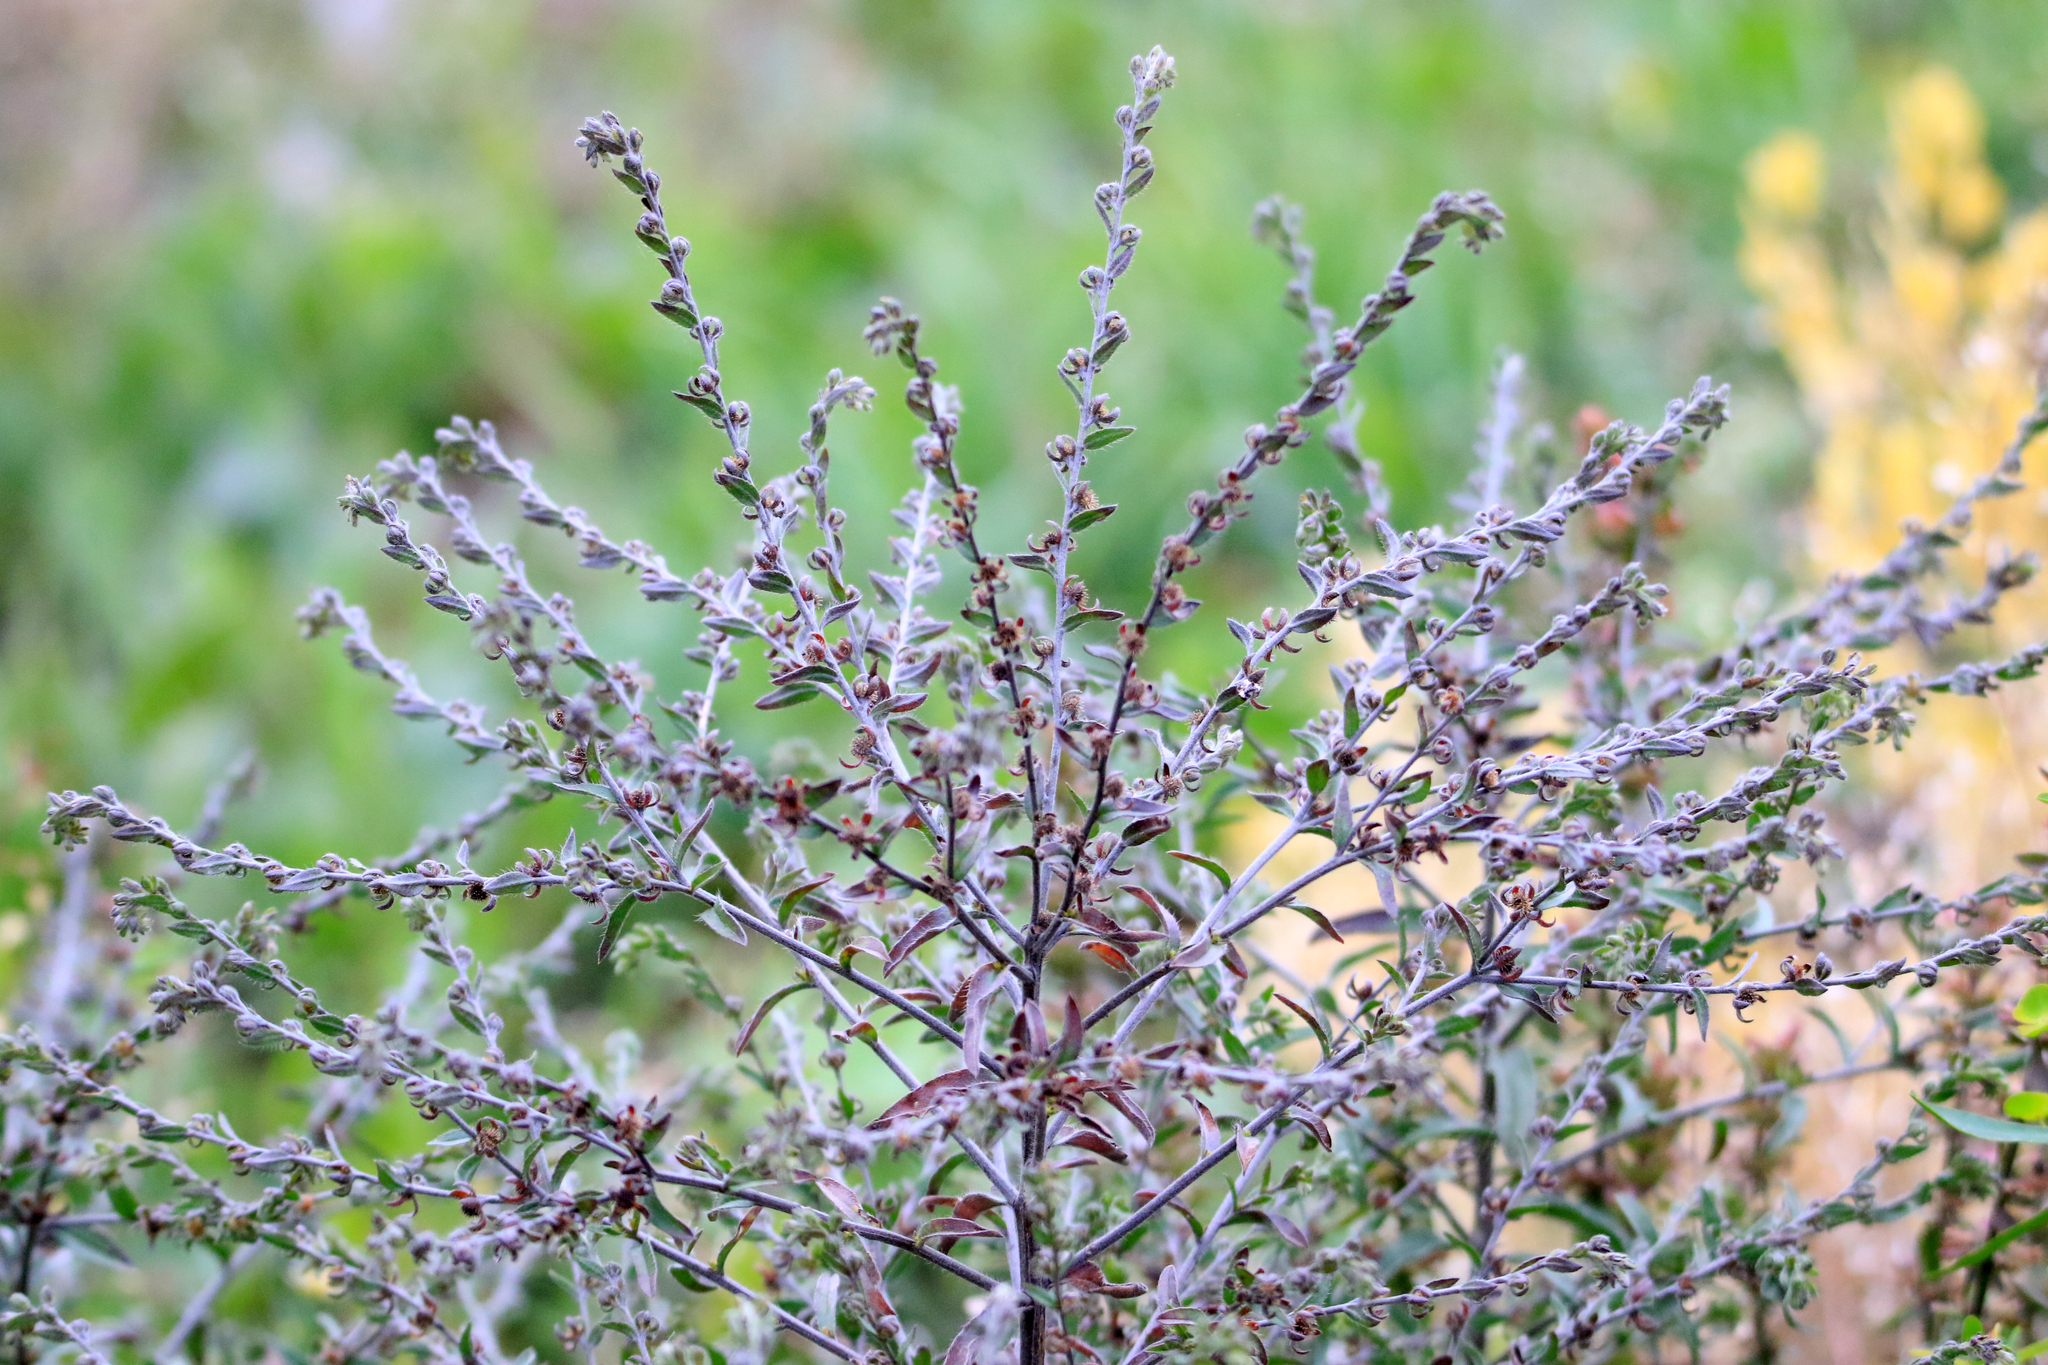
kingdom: Plantae
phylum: Tracheophyta
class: Magnoliopsida
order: Boraginales
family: Boraginaceae
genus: Lappula
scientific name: Lappula squarrosa
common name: European stickseed
